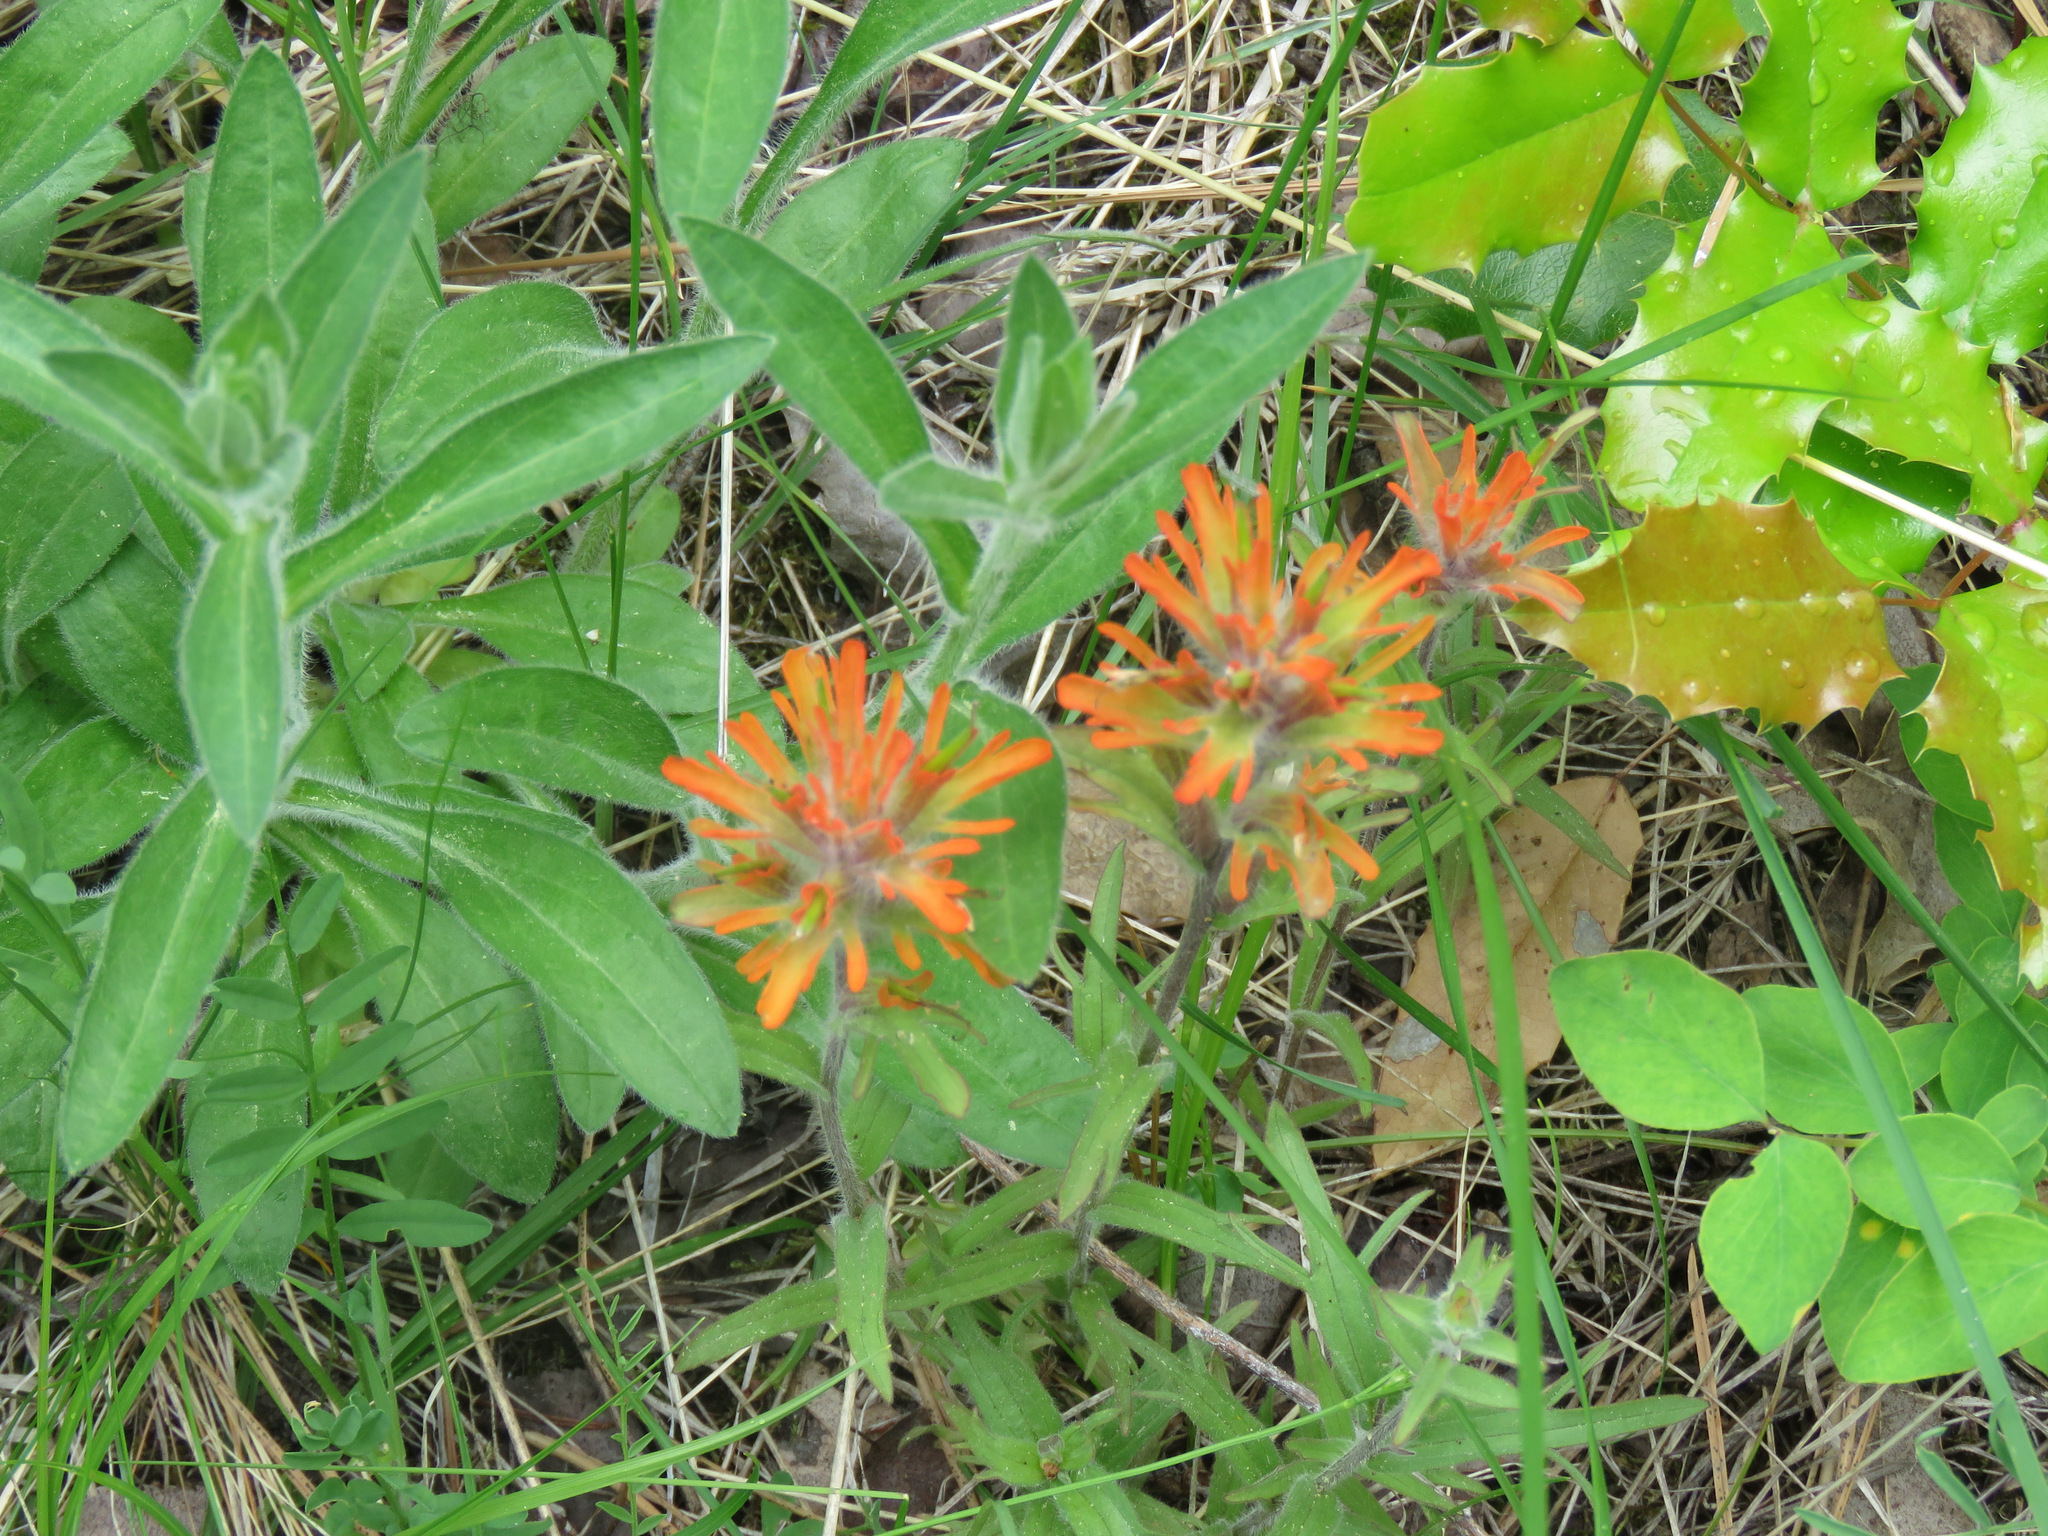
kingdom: Plantae
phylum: Tracheophyta
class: Magnoliopsida
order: Lamiales
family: Orobanchaceae
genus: Castilleja
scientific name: Castilleja hispida
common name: Bristly paintbrush
